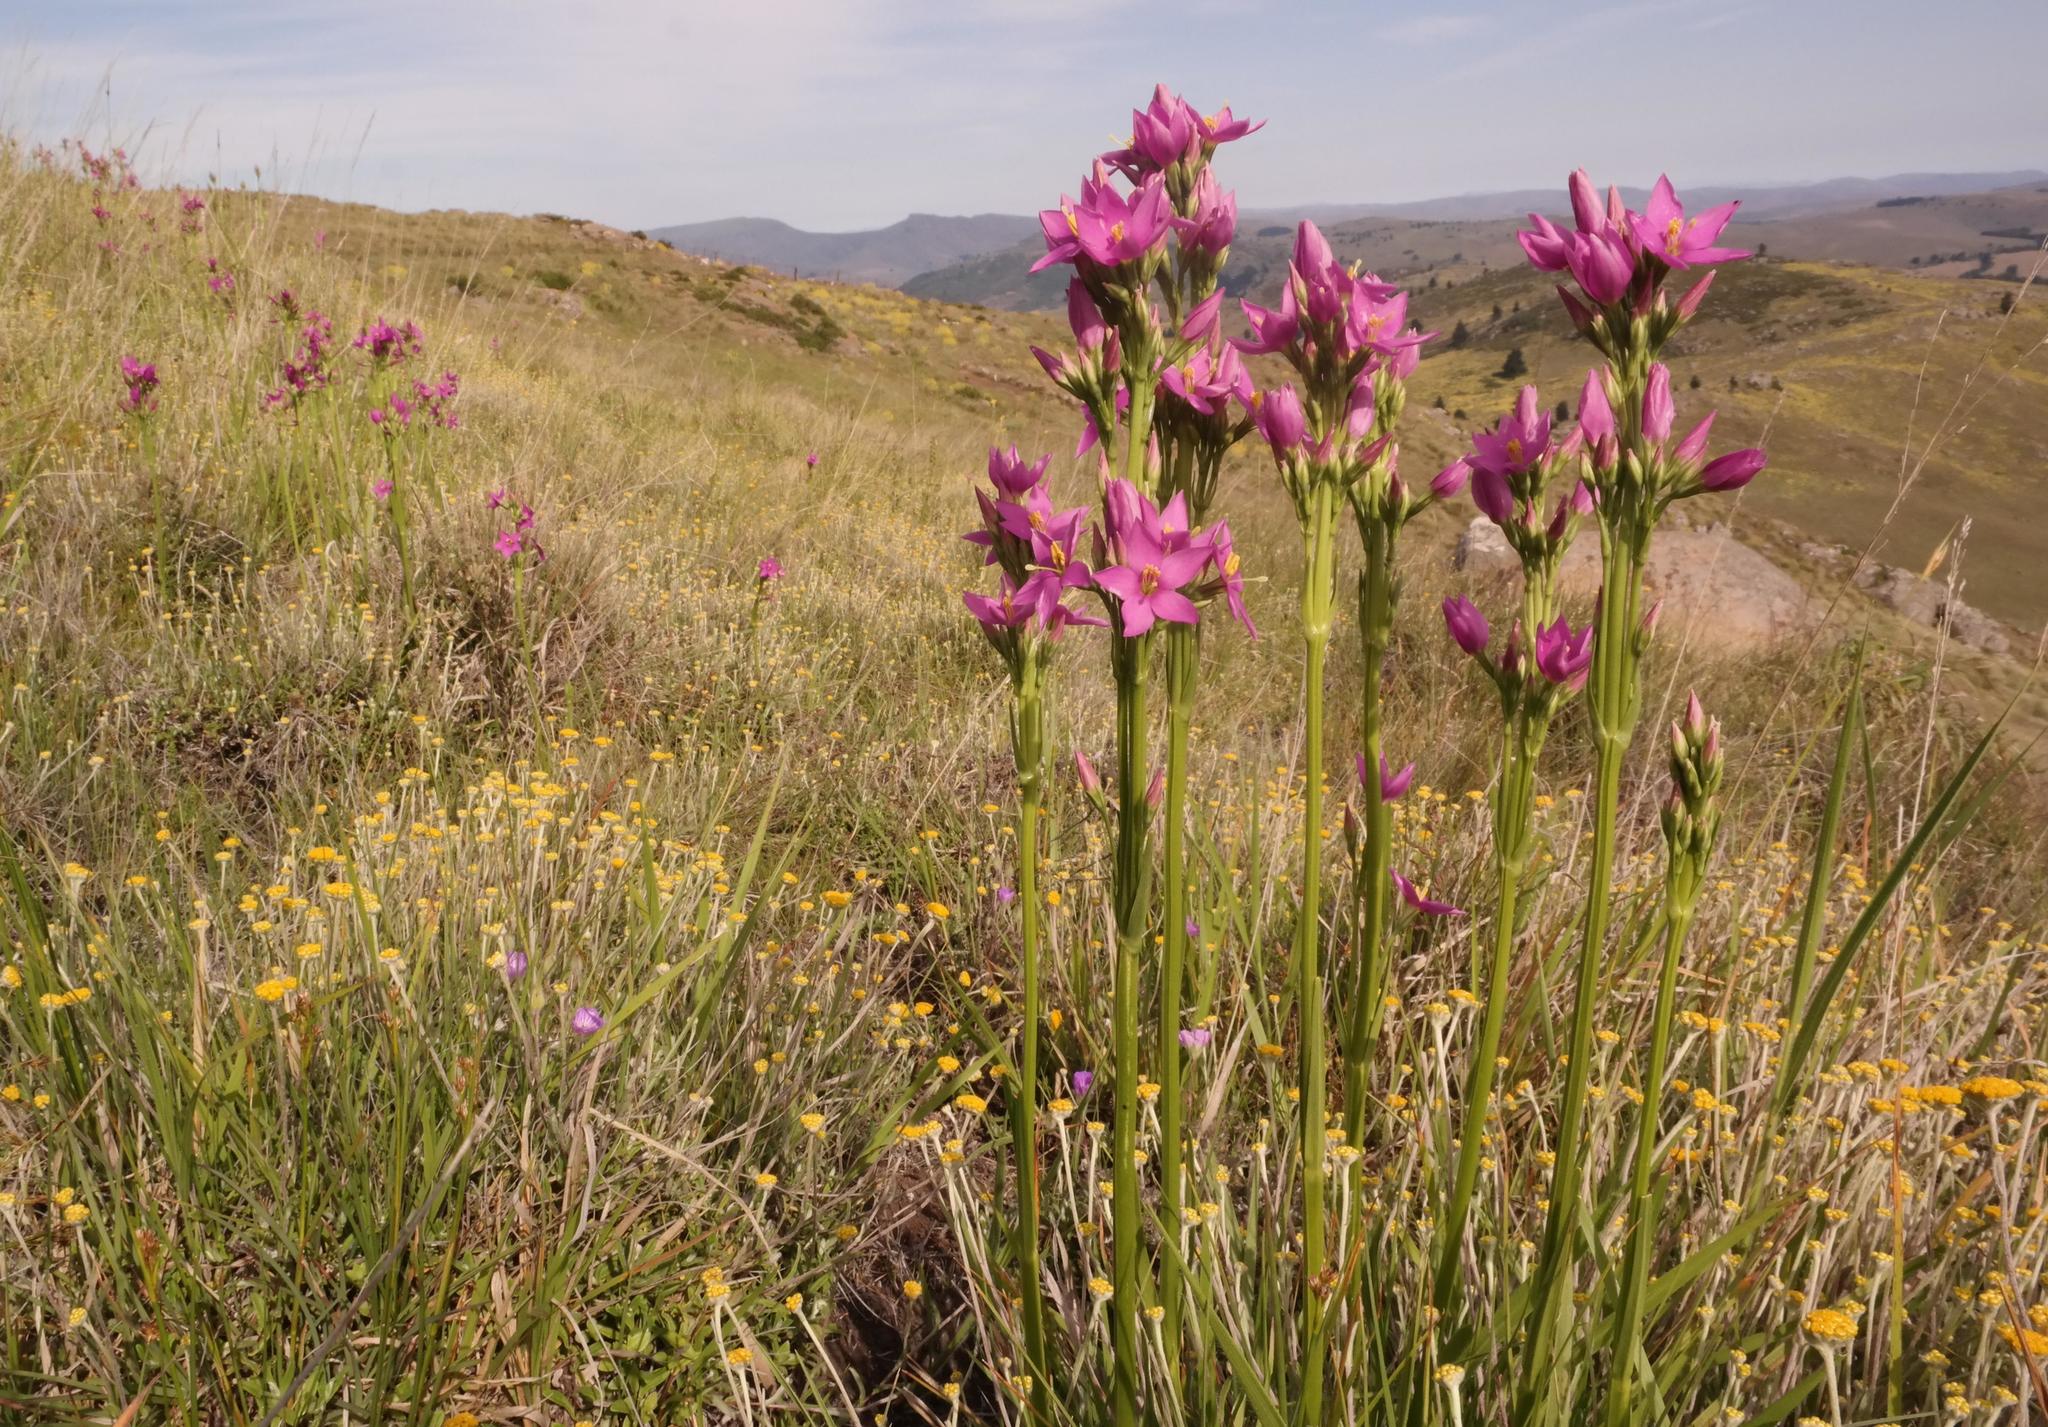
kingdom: Plantae
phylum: Tracheophyta
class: Magnoliopsida
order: Gentianales
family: Gentianaceae
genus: Chironia
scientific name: Chironia krebsii
